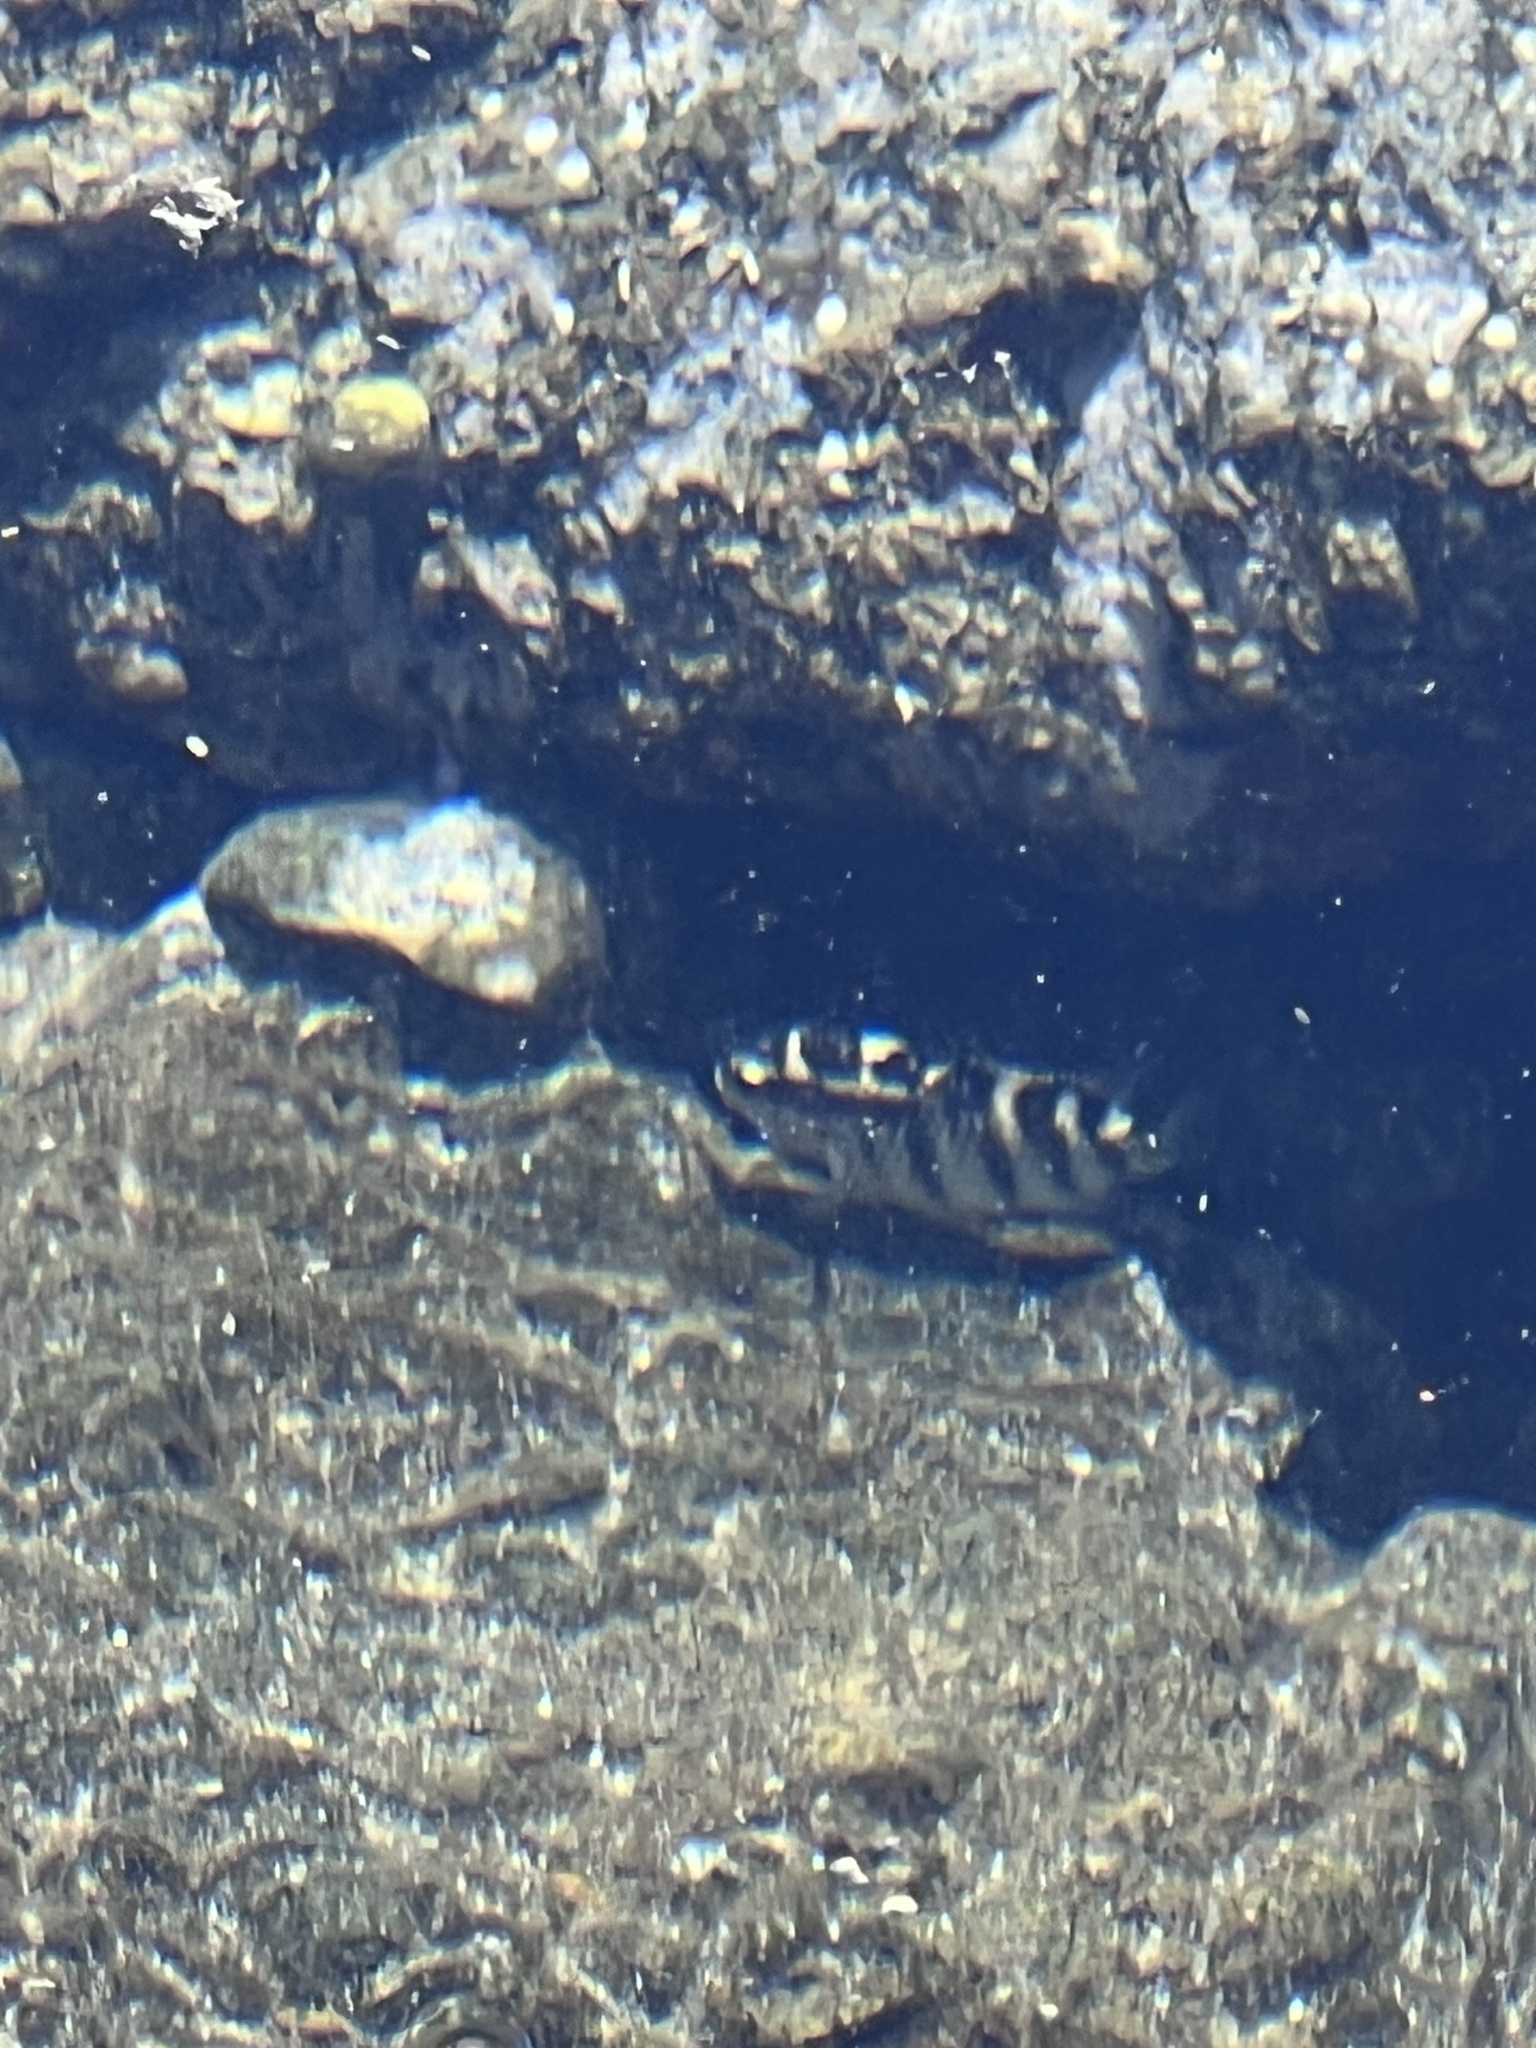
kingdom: Animalia
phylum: Chordata
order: Perciformes
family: Pomacentridae
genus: Abudefduf
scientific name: Abudefduf concolor
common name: Dusky seargent
